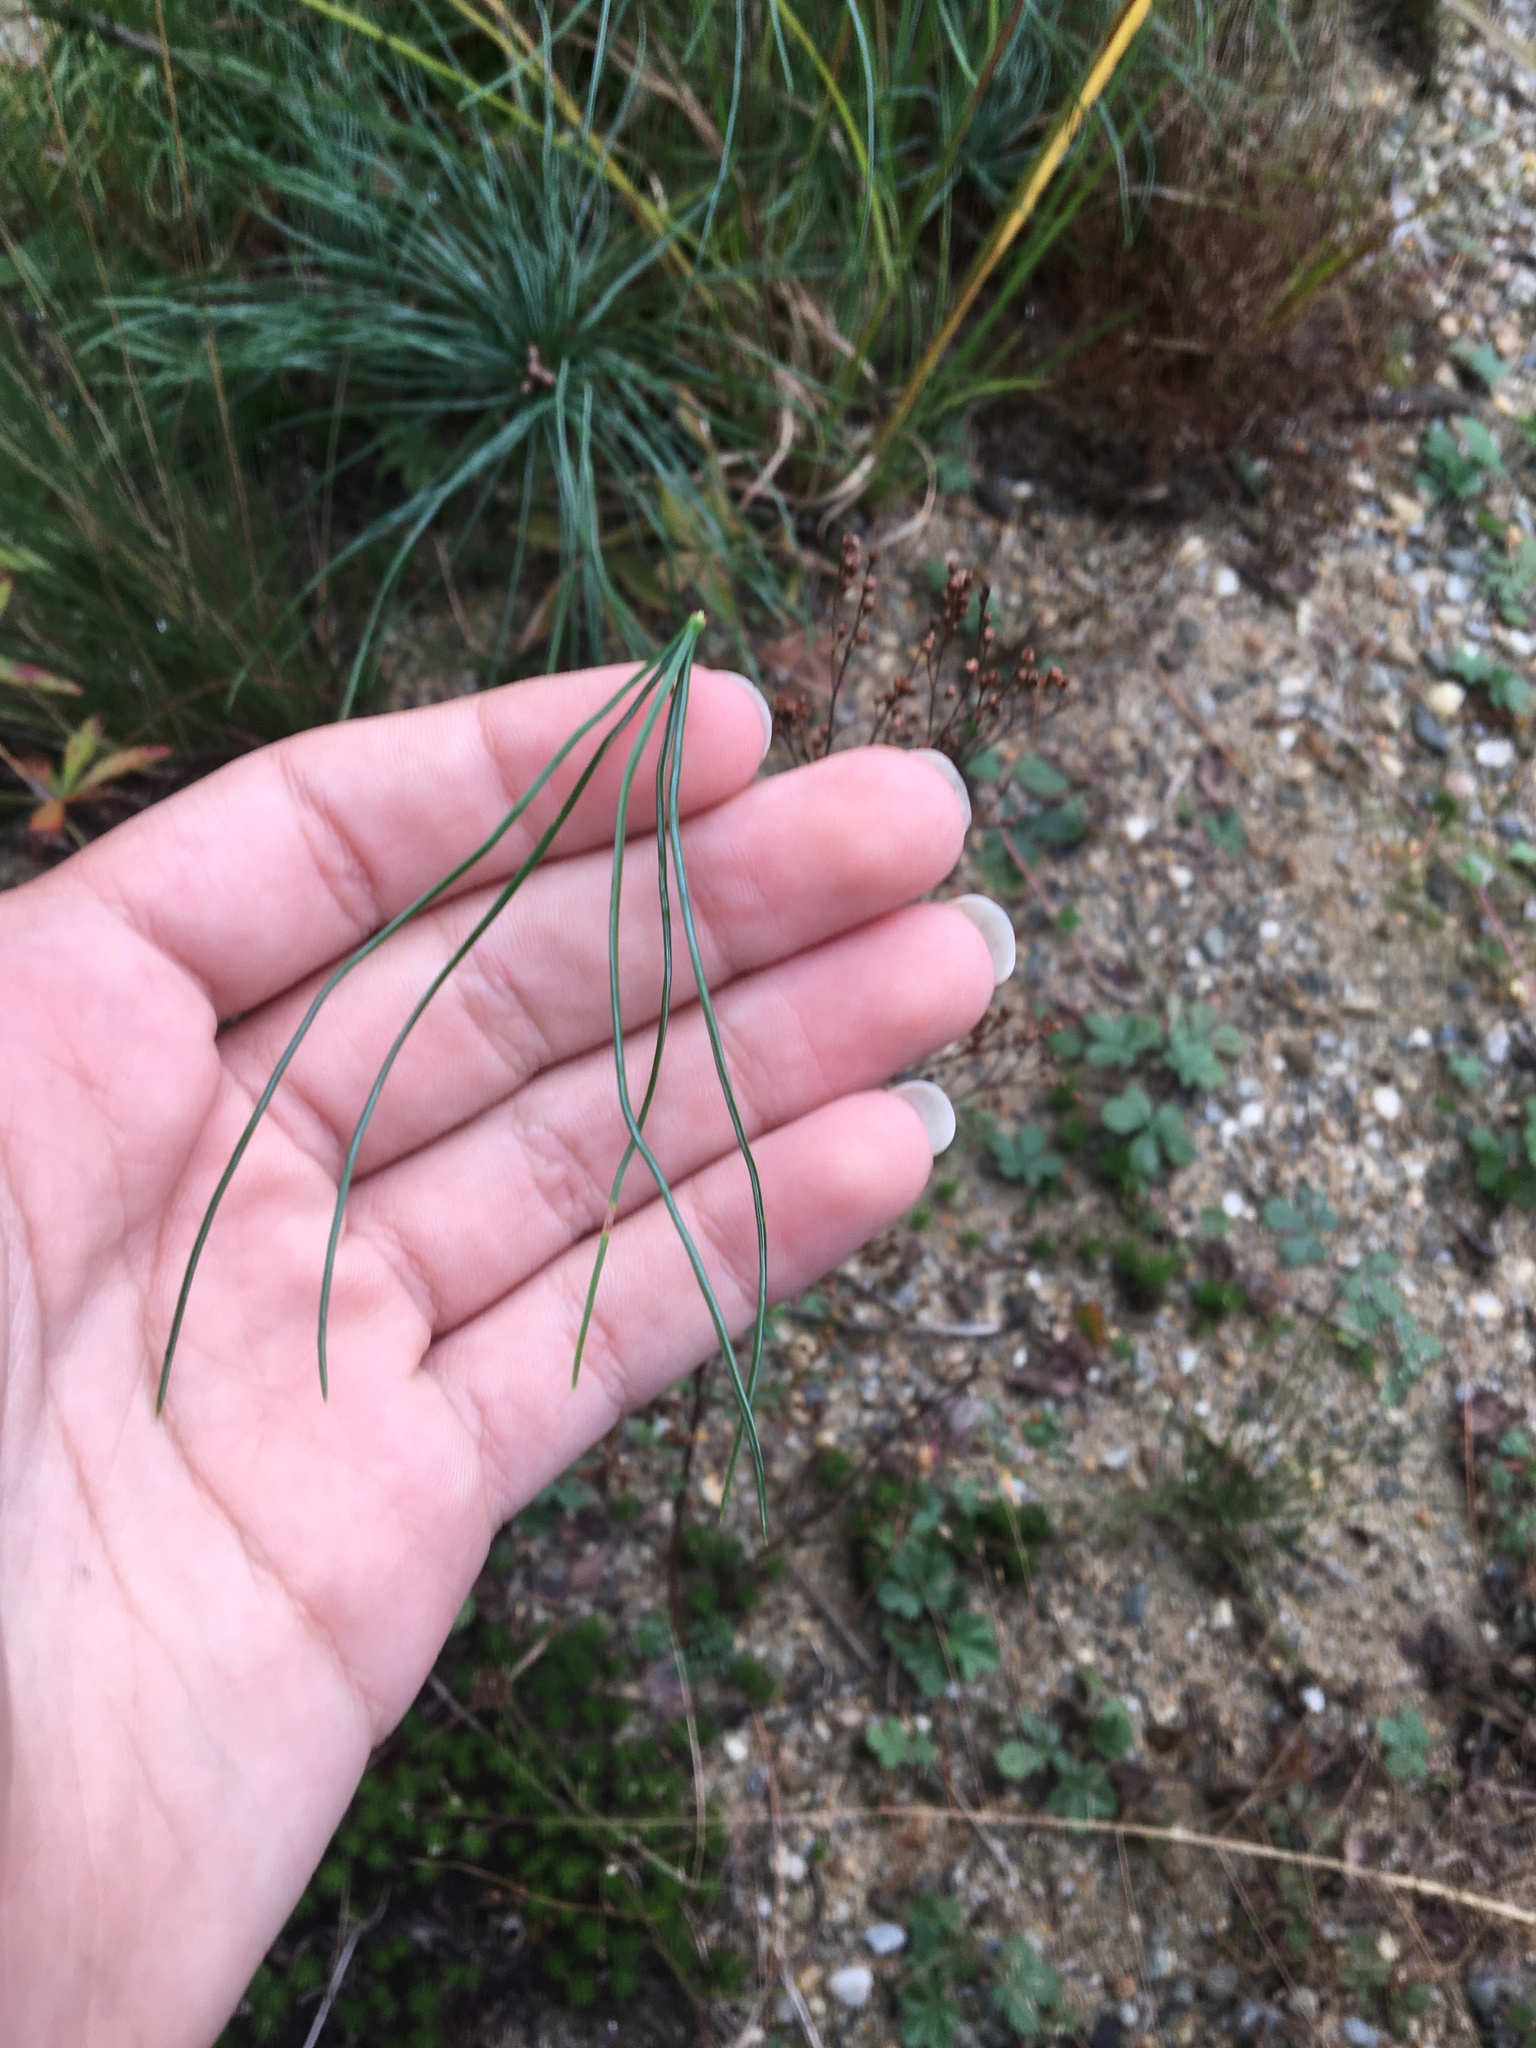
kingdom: Plantae
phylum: Tracheophyta
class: Pinopsida
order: Pinales
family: Pinaceae
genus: Pinus
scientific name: Pinus strobus
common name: Weymouth pine
